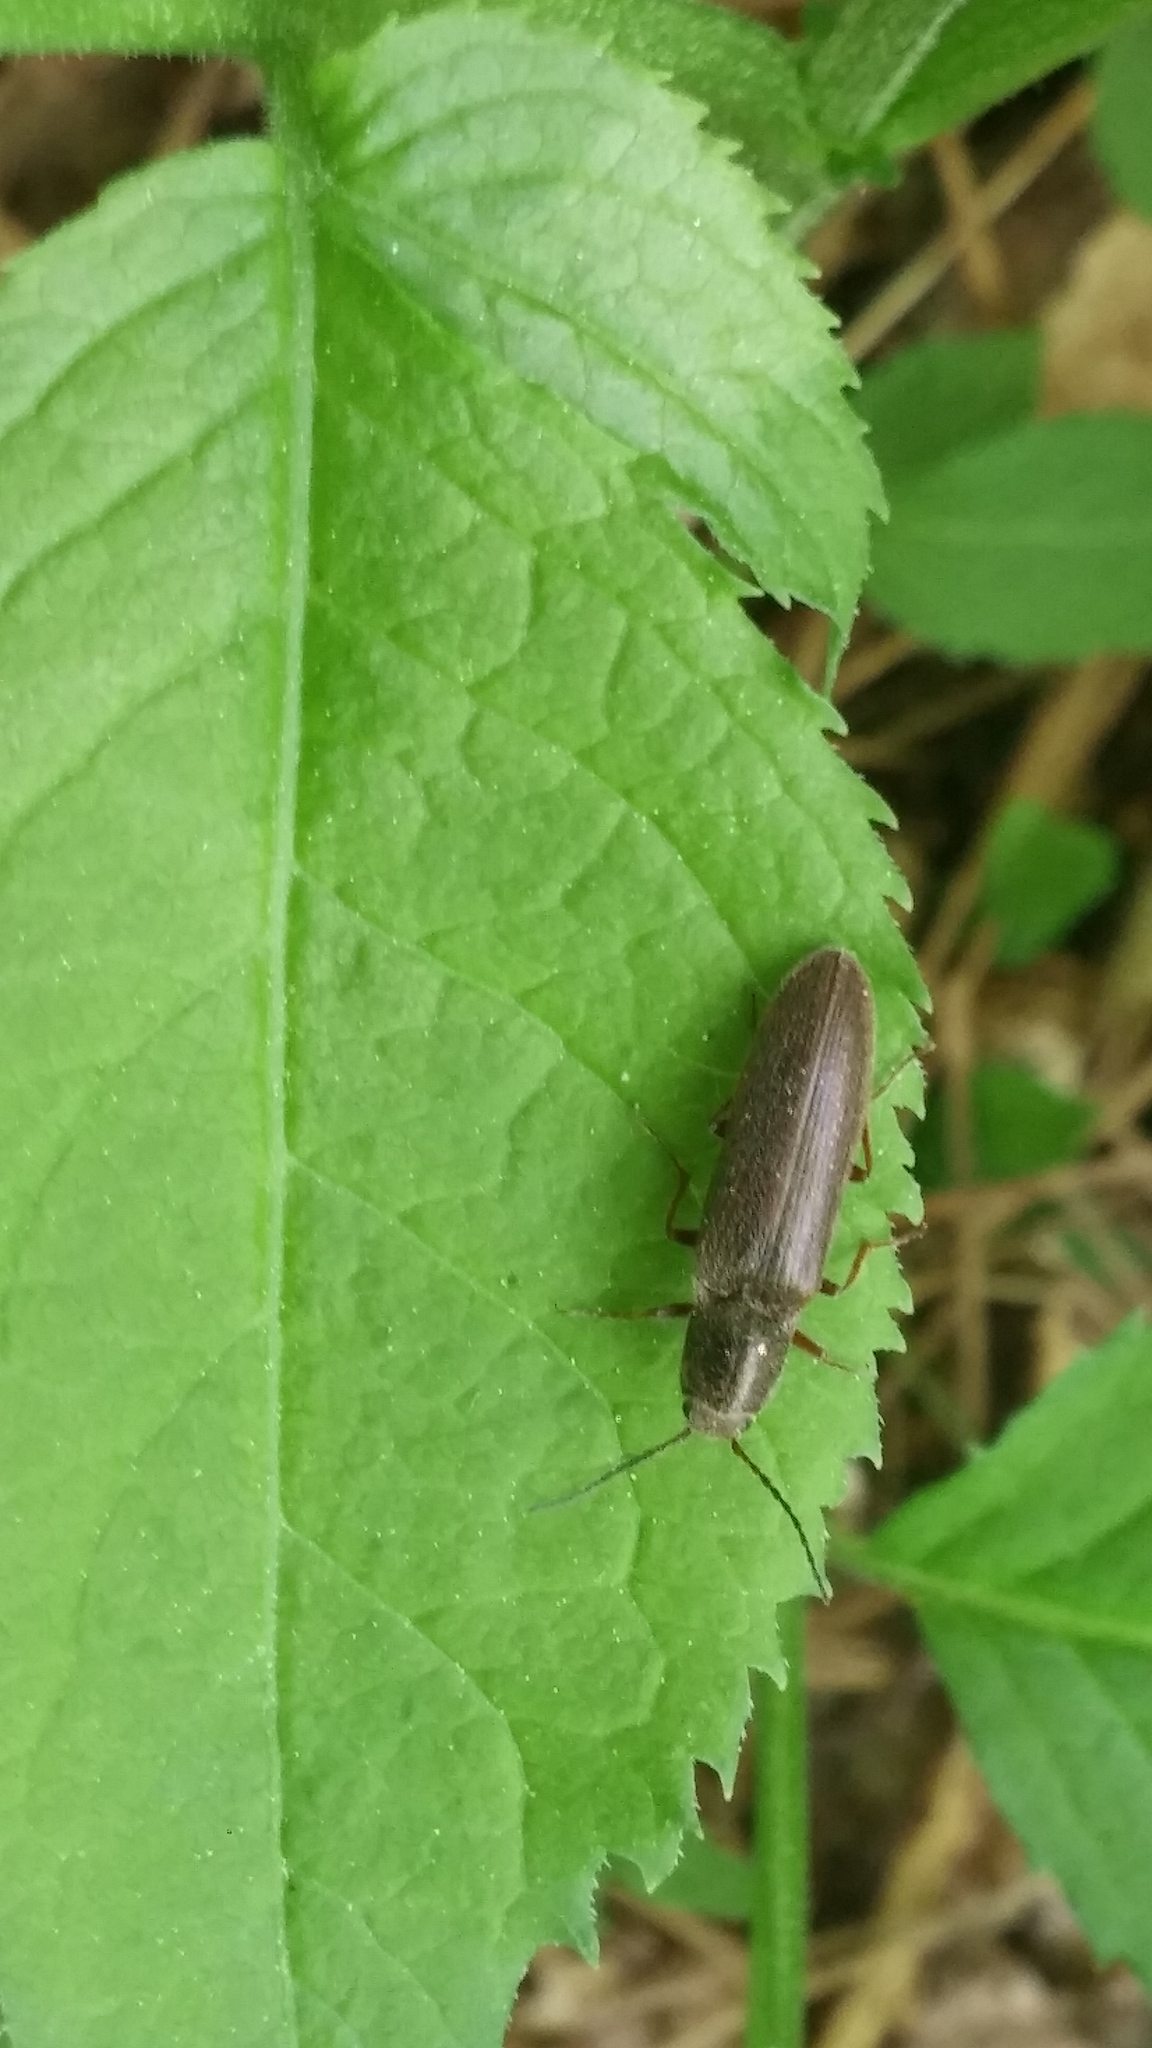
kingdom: Animalia
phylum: Arthropoda
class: Insecta
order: Coleoptera
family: Elateridae
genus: Sylvanelater
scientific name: Sylvanelater cylindriformis
